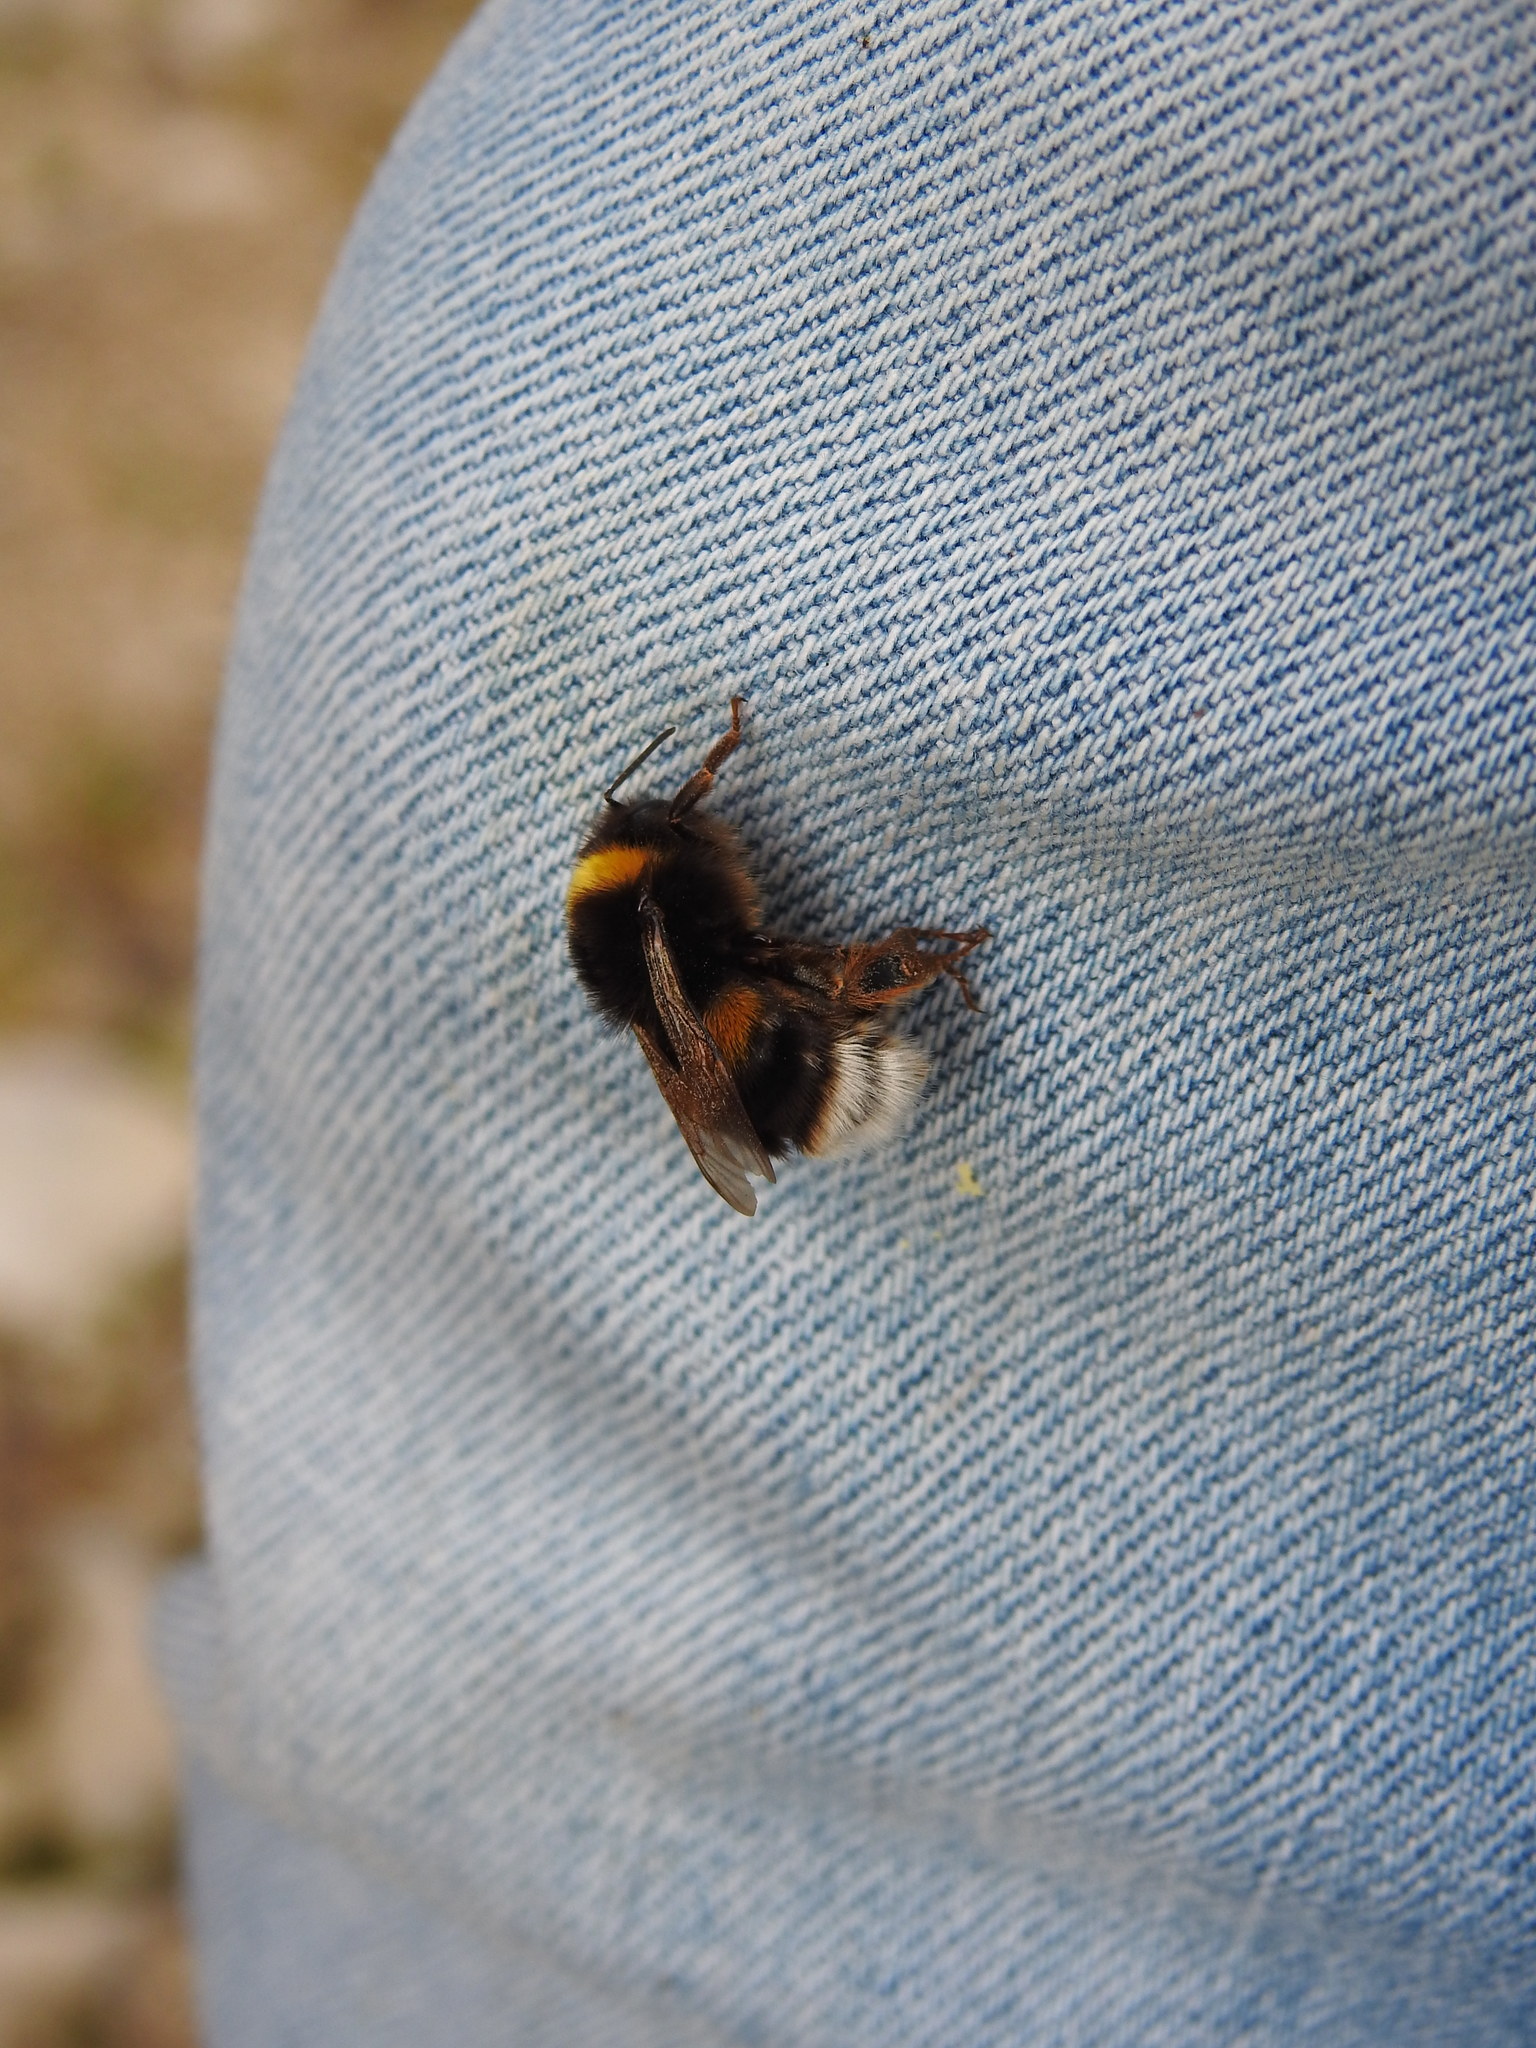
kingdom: Animalia
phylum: Arthropoda
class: Insecta
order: Hymenoptera
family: Apidae
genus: Bombus
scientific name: Bombus terrestris
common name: Buff-tailed bumblebee
